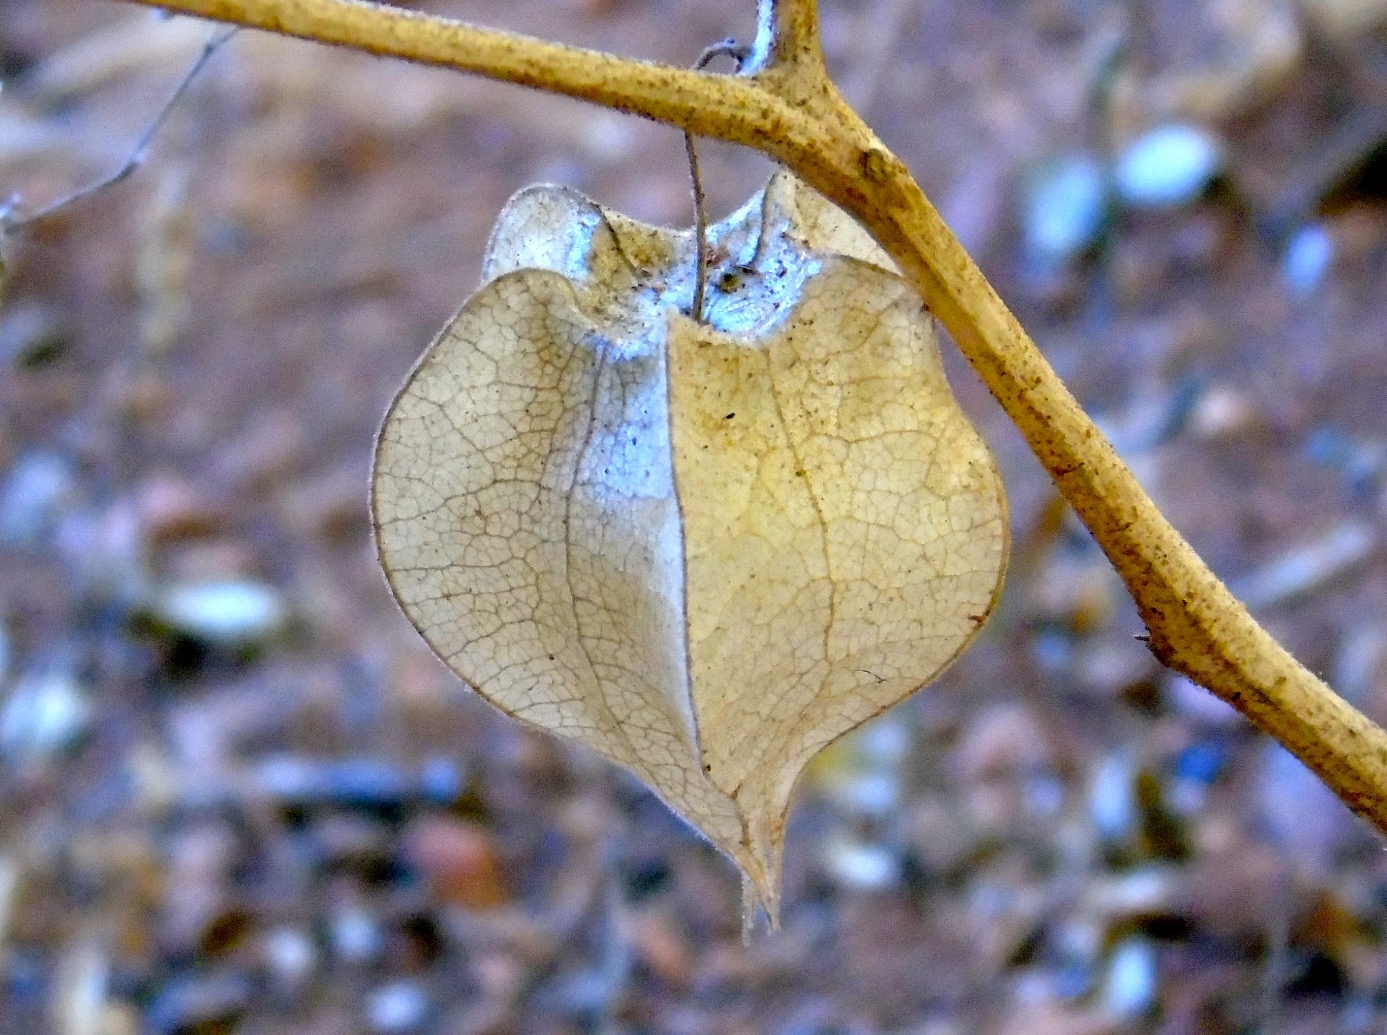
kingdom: Plantae
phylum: Tracheophyta
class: Magnoliopsida
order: Solanales
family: Solanaceae
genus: Physalis
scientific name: Physalis
